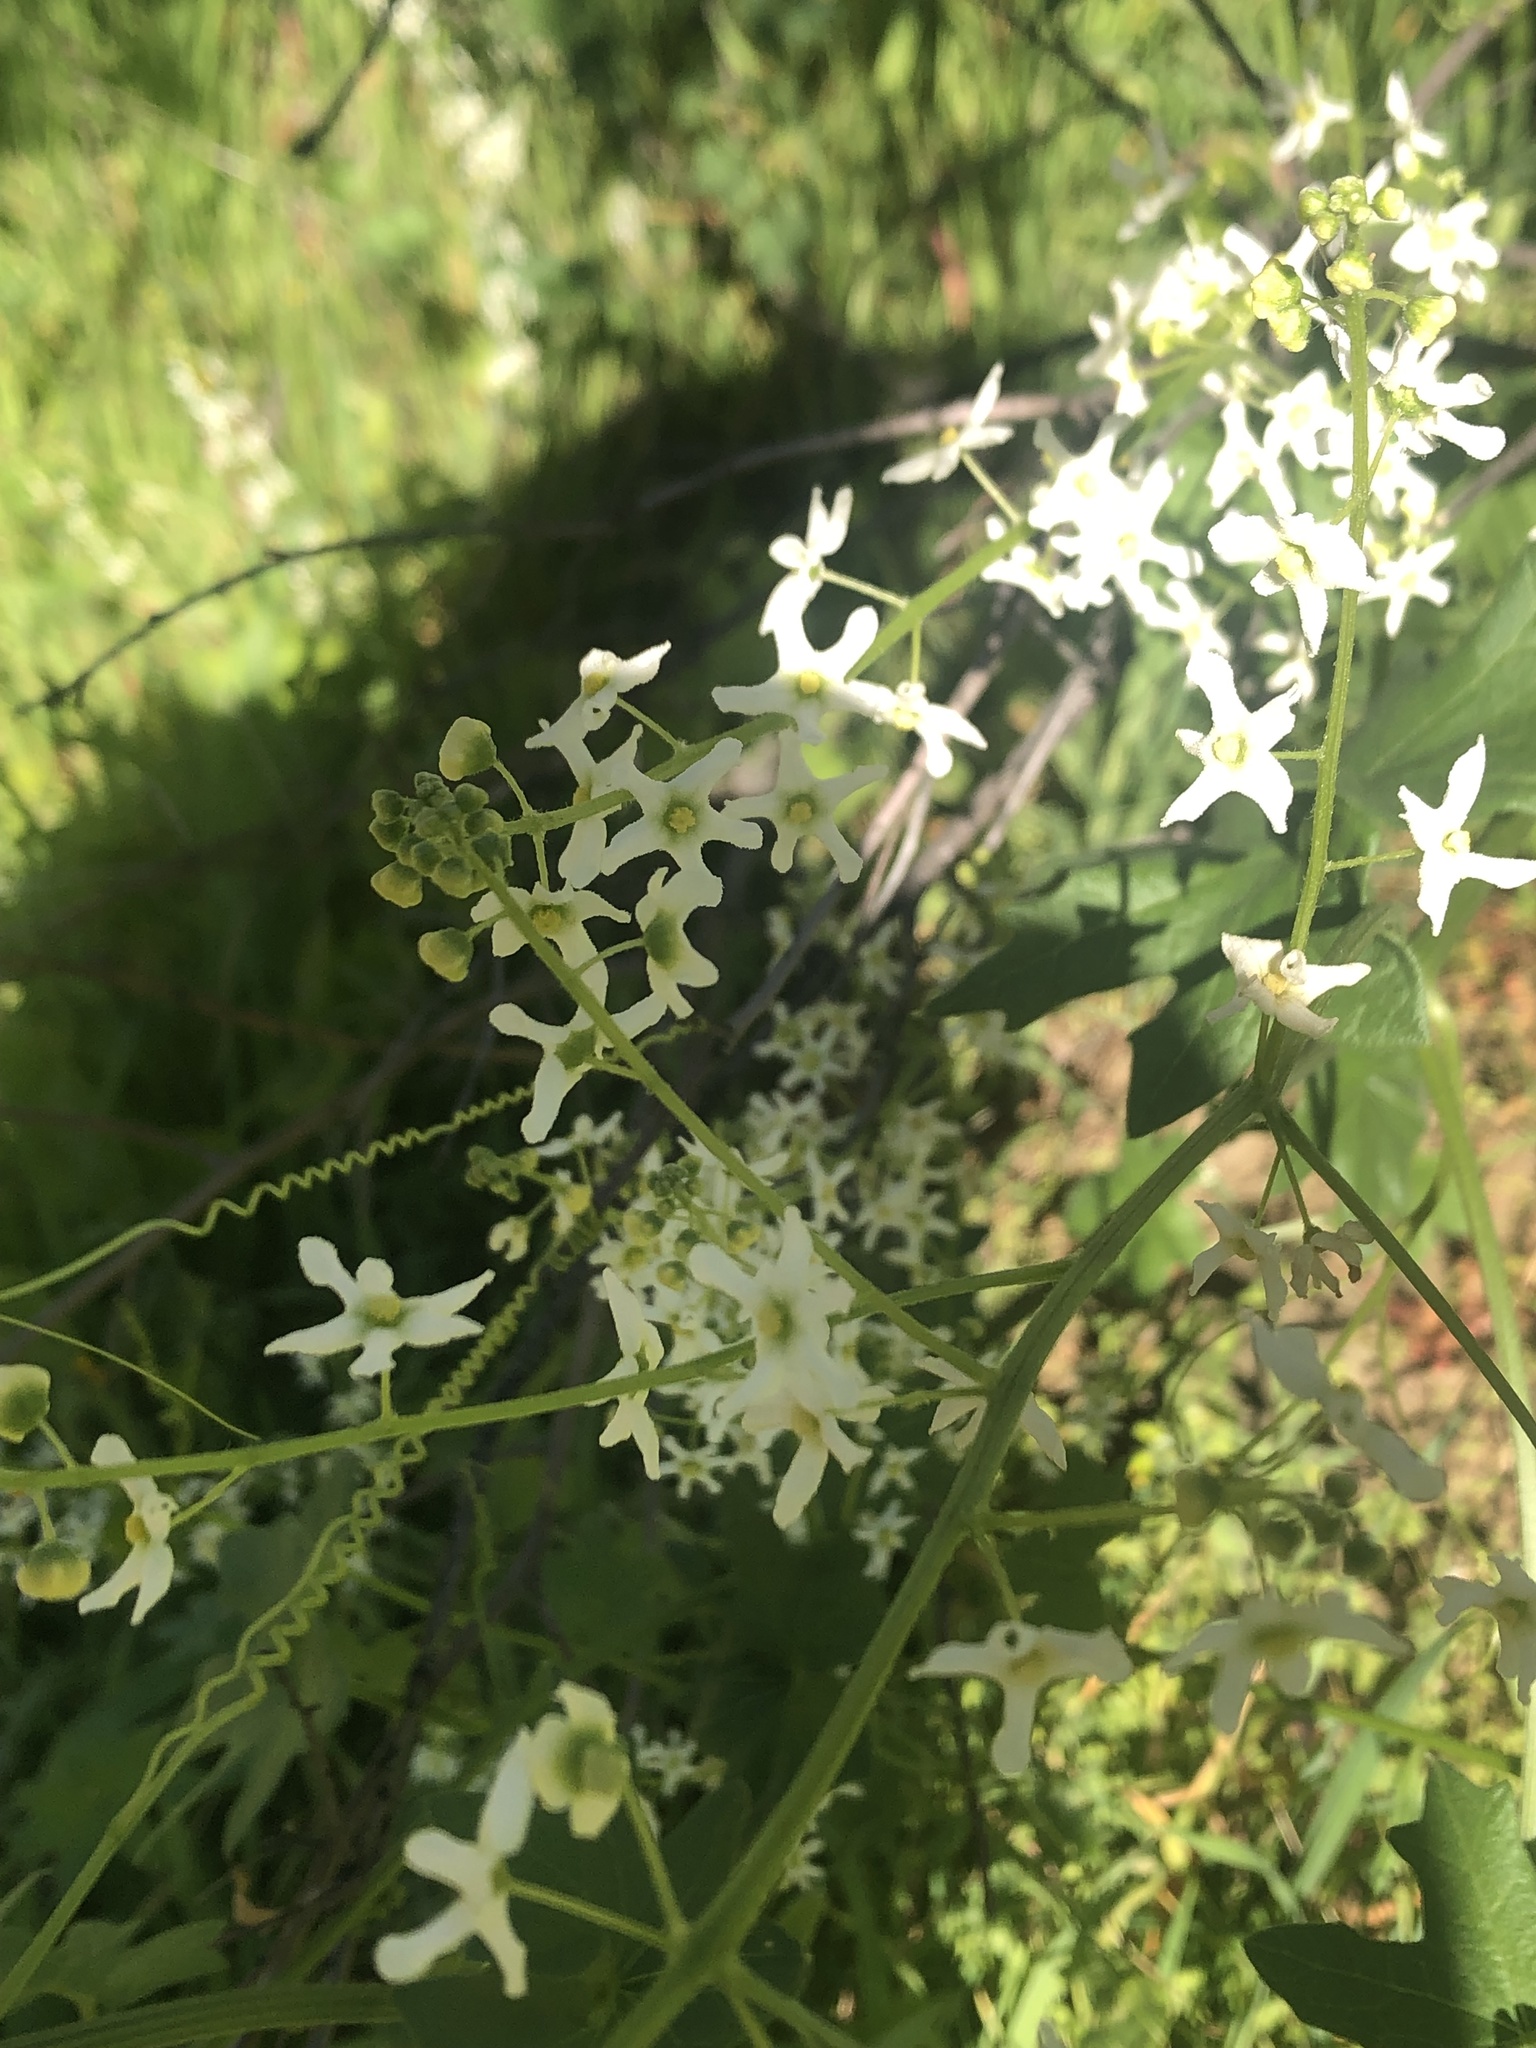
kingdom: Plantae
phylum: Tracheophyta
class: Magnoliopsida
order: Cucurbitales
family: Cucurbitaceae
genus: Marah
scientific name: Marah fabacea
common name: California manroot
